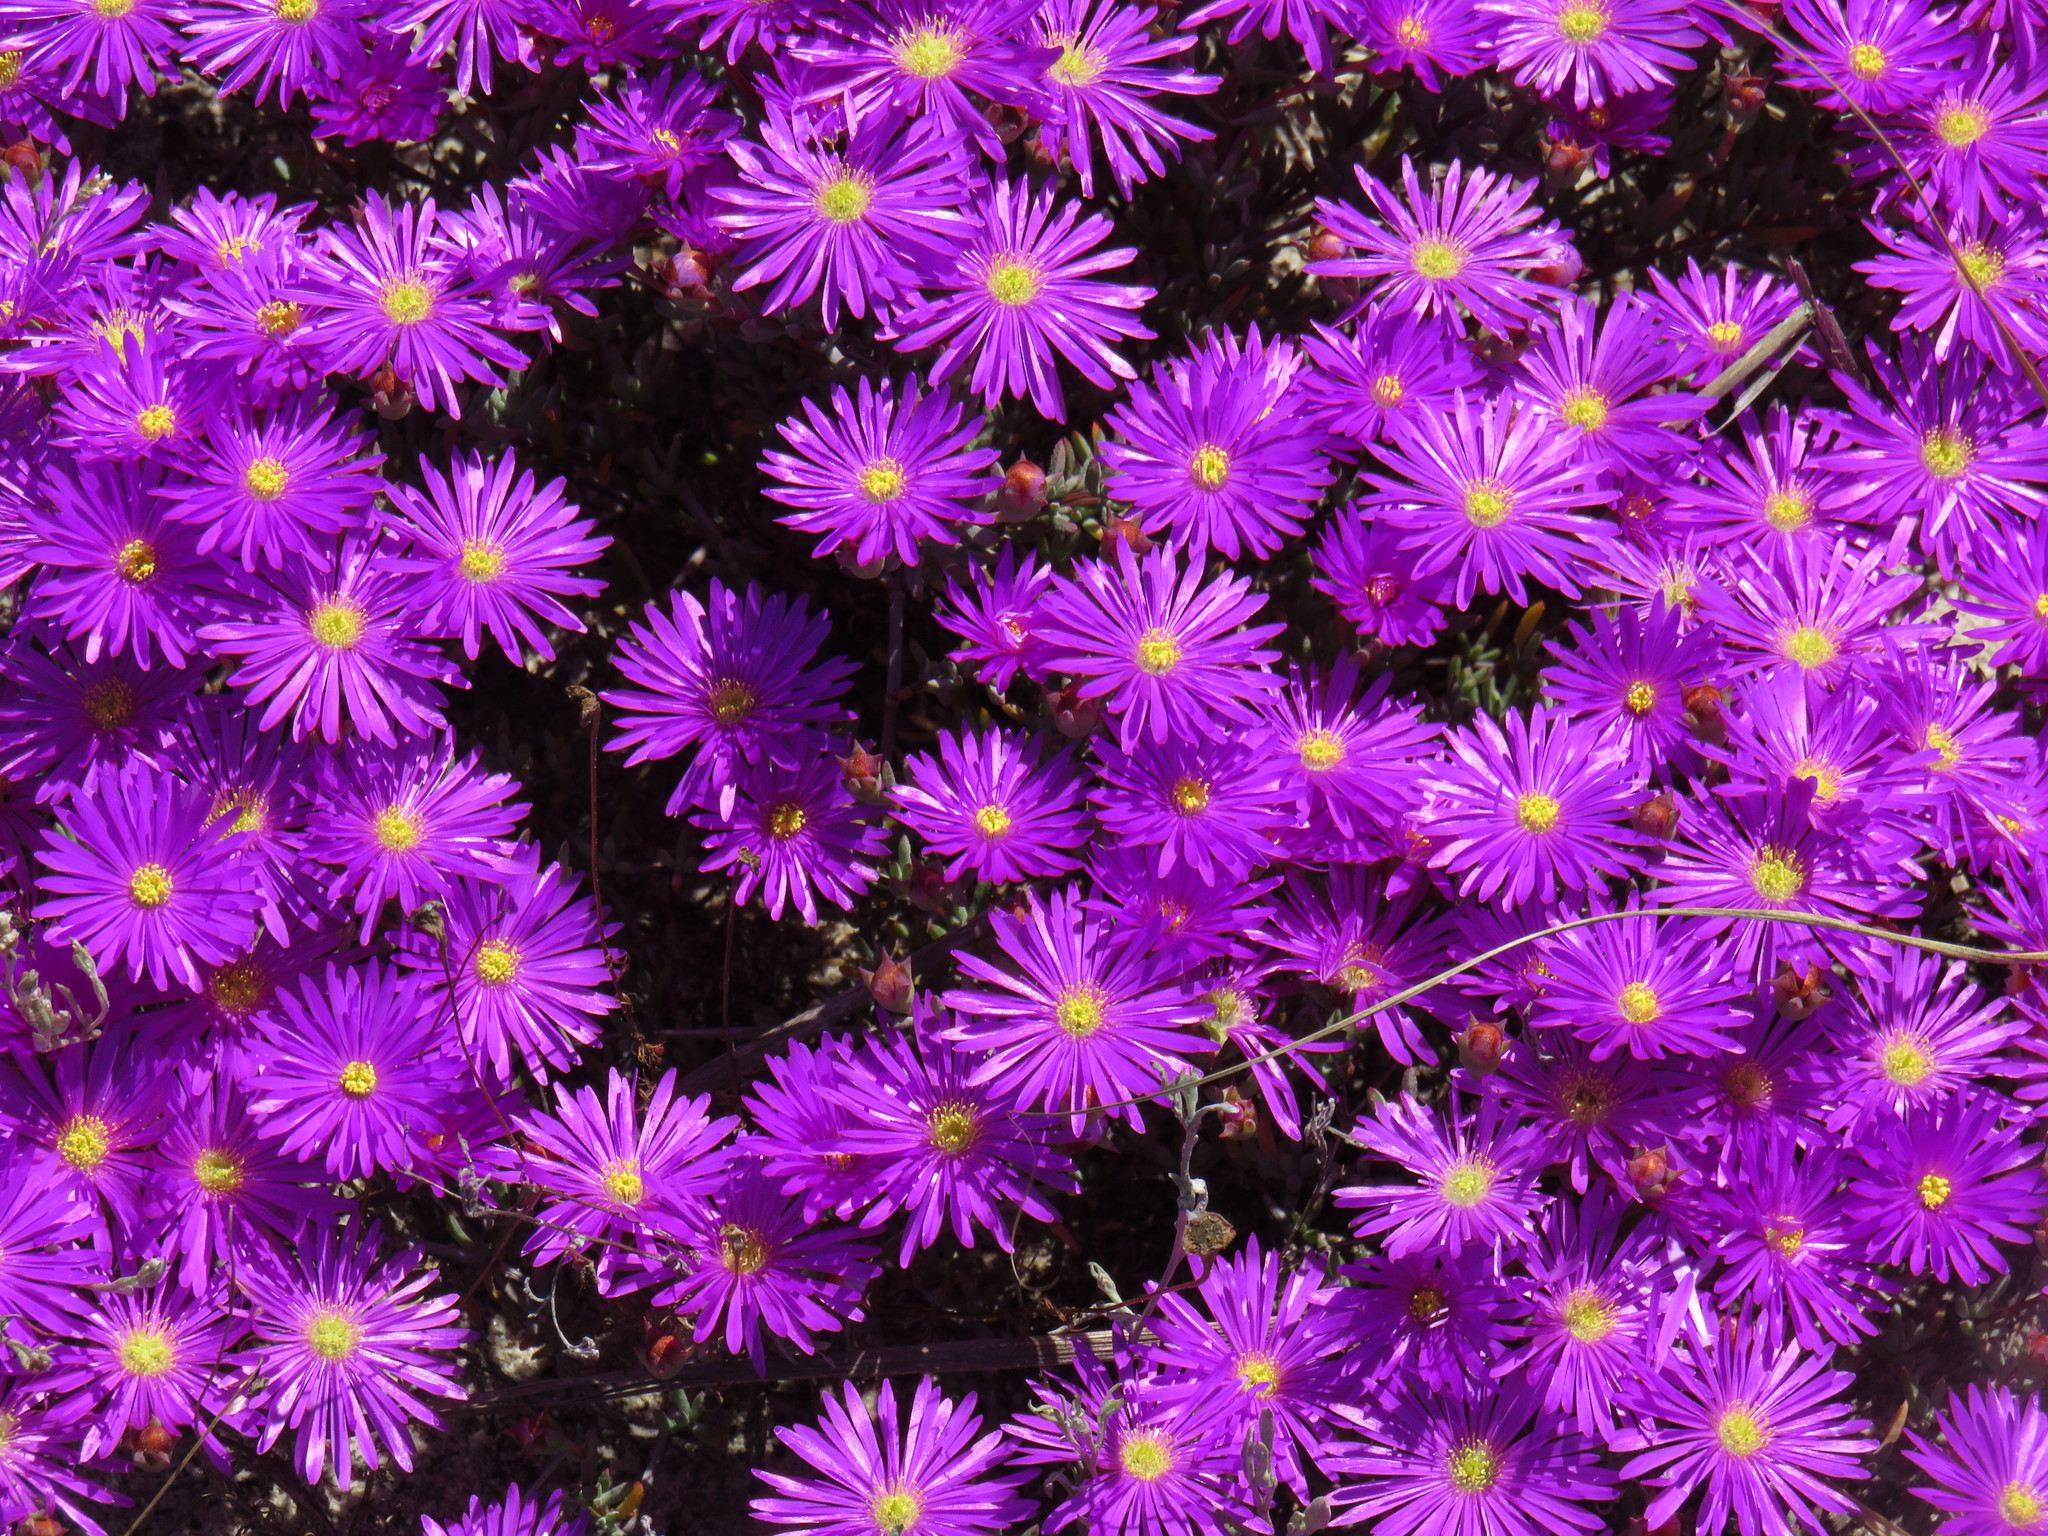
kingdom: Plantae
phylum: Tracheophyta
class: Magnoliopsida
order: Caryophyllales
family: Aizoaceae
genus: Lampranthus
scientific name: Lampranthus emarginatus
